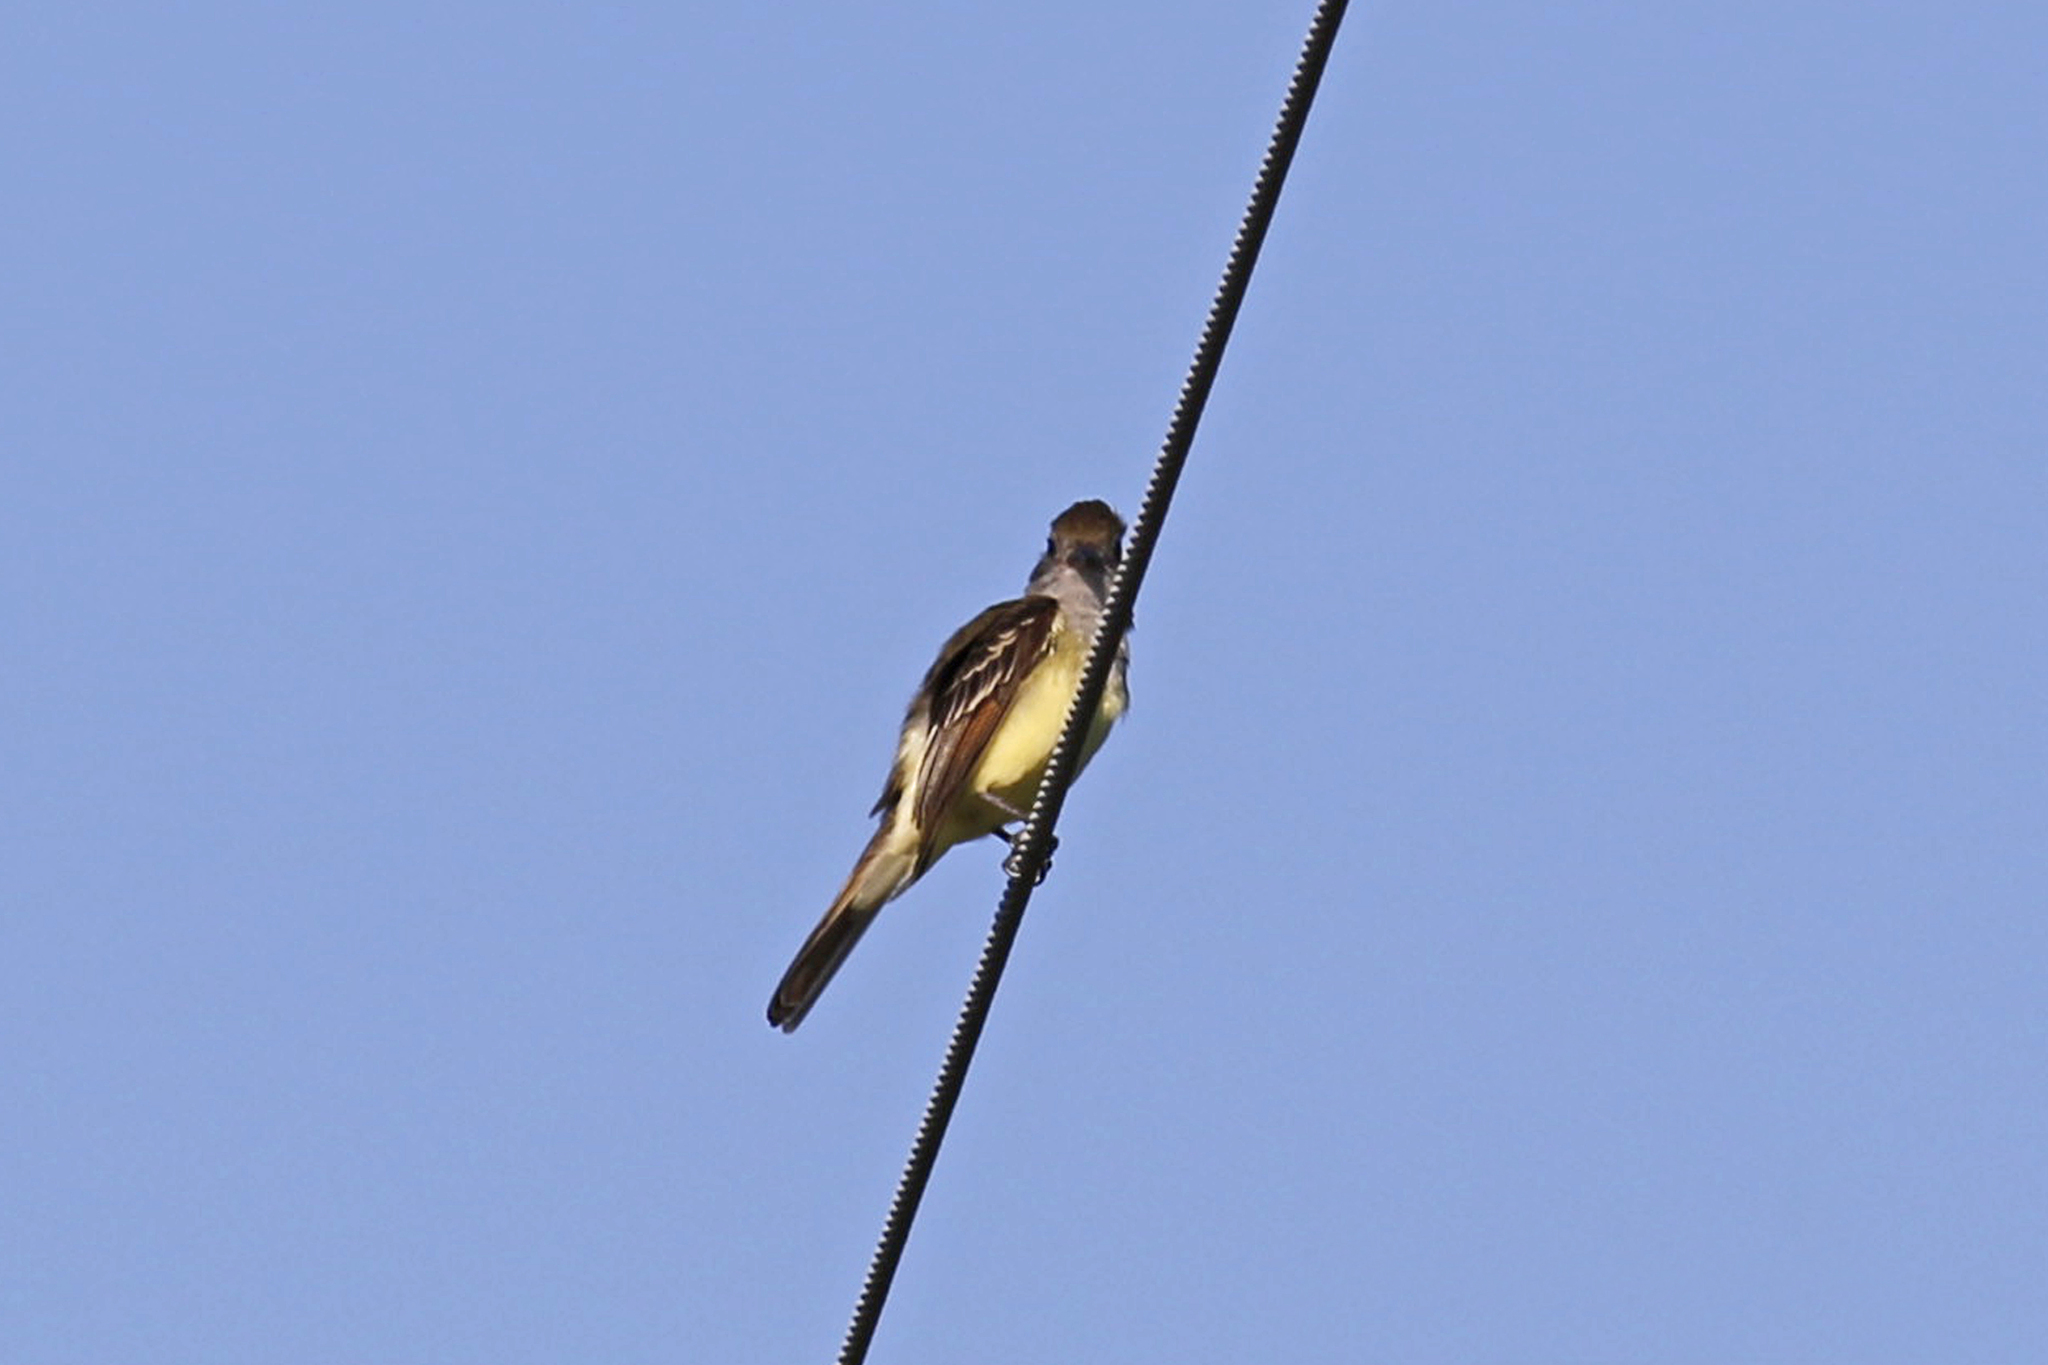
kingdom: Animalia
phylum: Chordata
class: Aves
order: Passeriformes
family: Tyrannidae
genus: Myiarchus
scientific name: Myiarchus crinitus
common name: Great crested flycatcher
